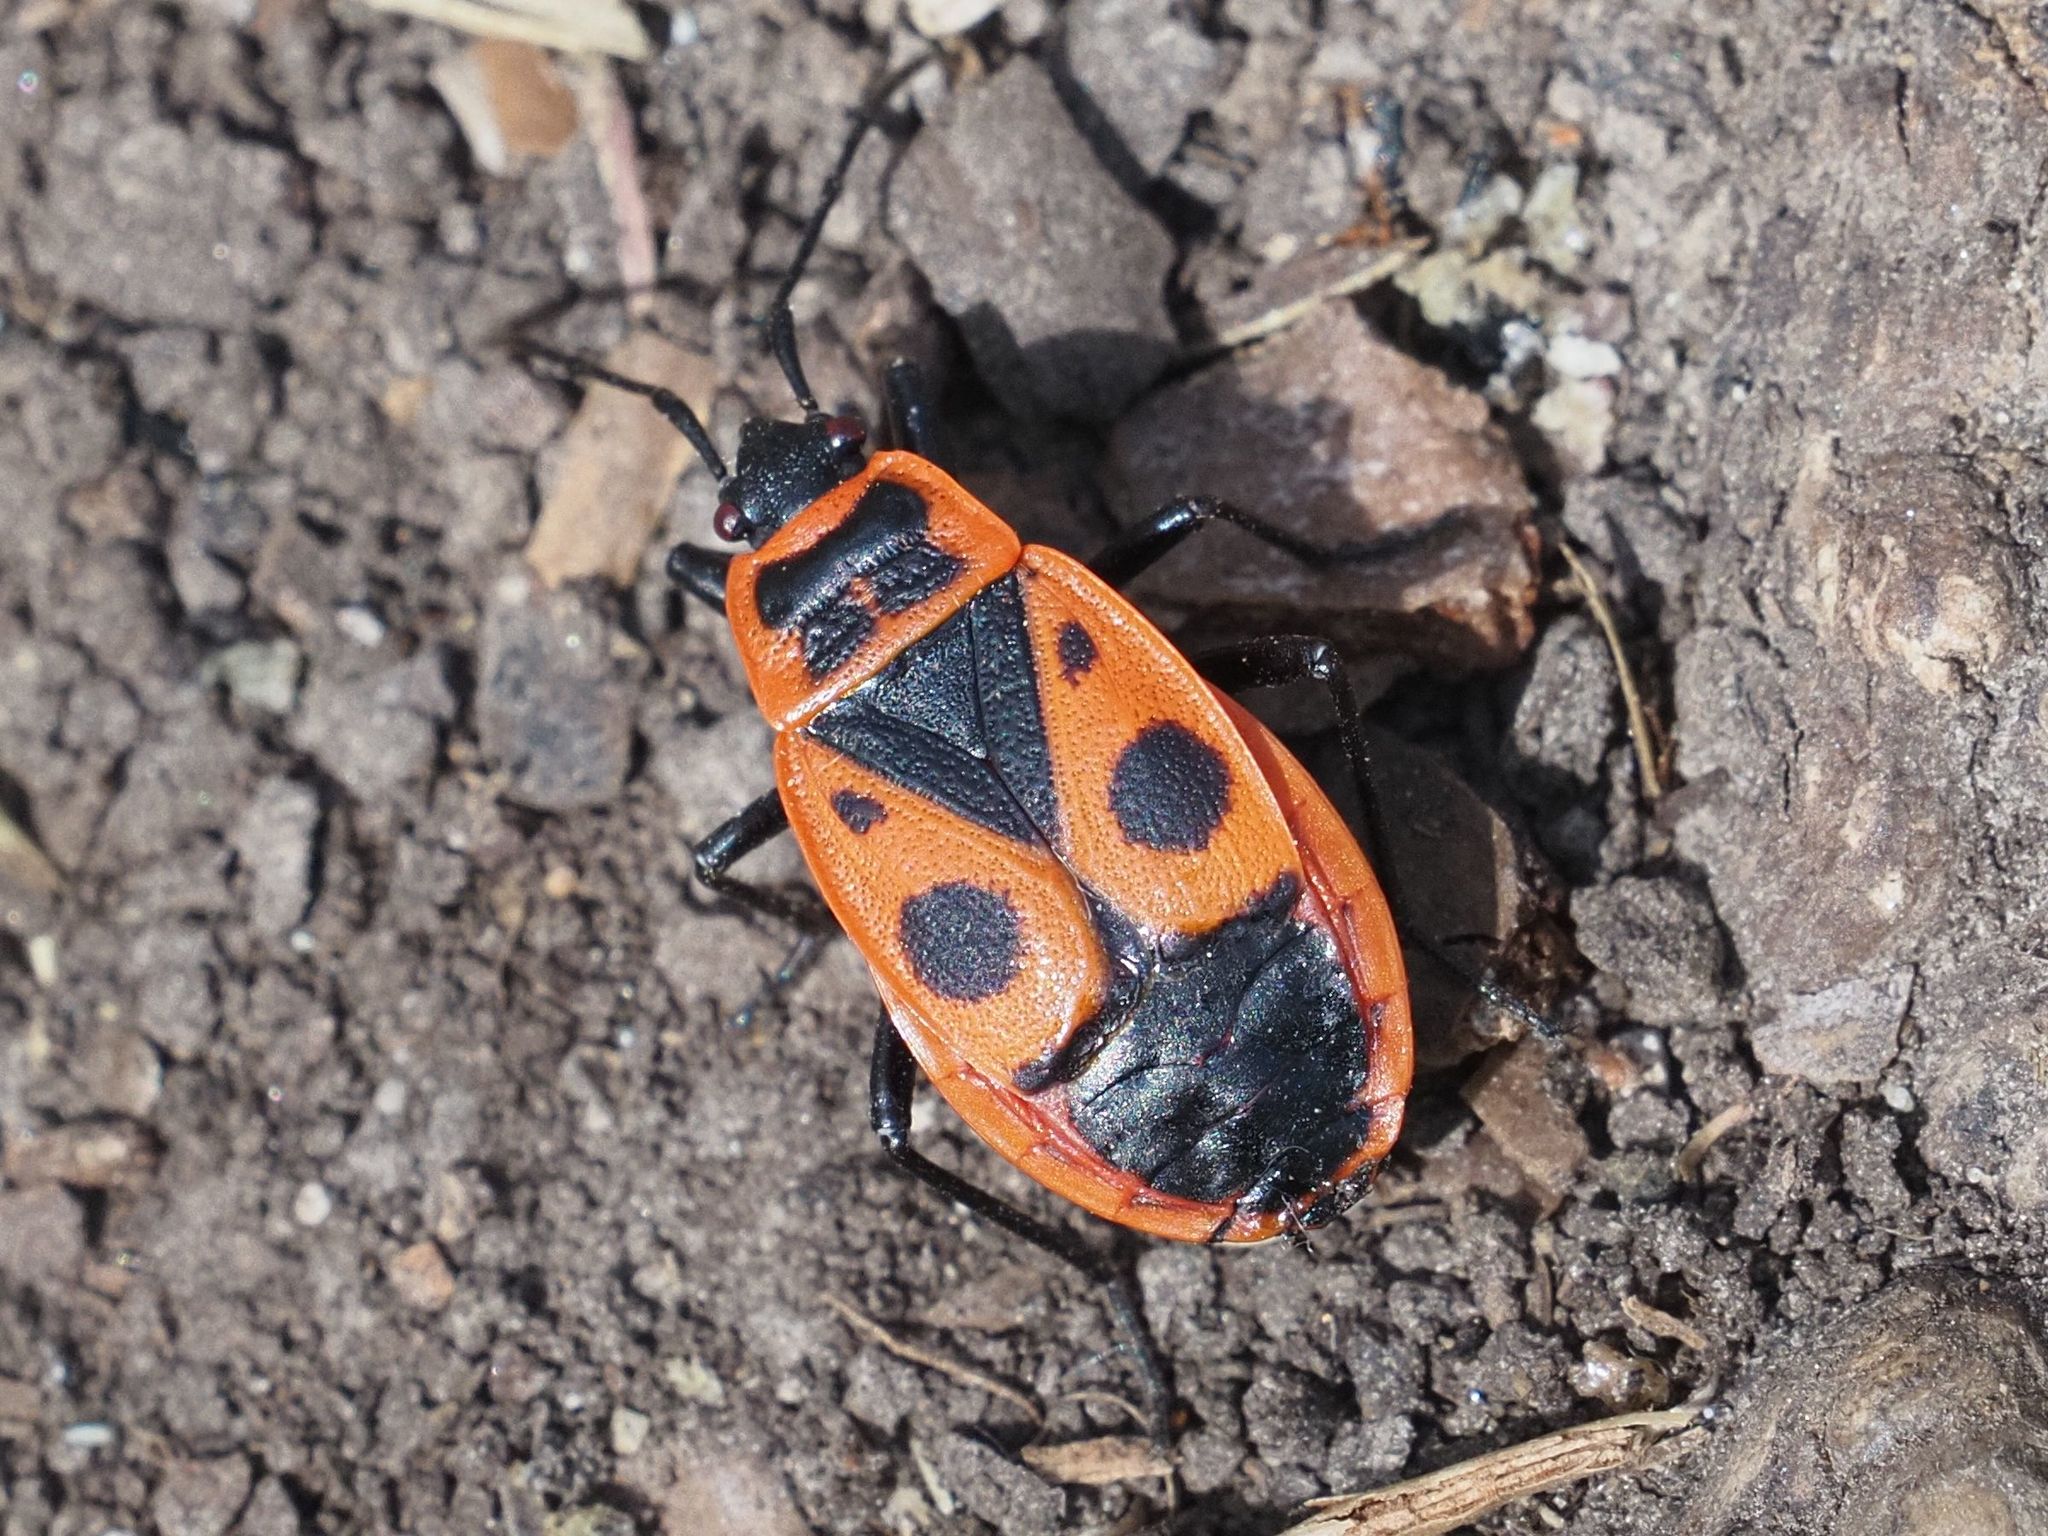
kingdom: Animalia
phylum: Arthropoda
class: Insecta
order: Hemiptera
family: Pyrrhocoridae
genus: Pyrrhocoris
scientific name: Pyrrhocoris apterus
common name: Firebug
